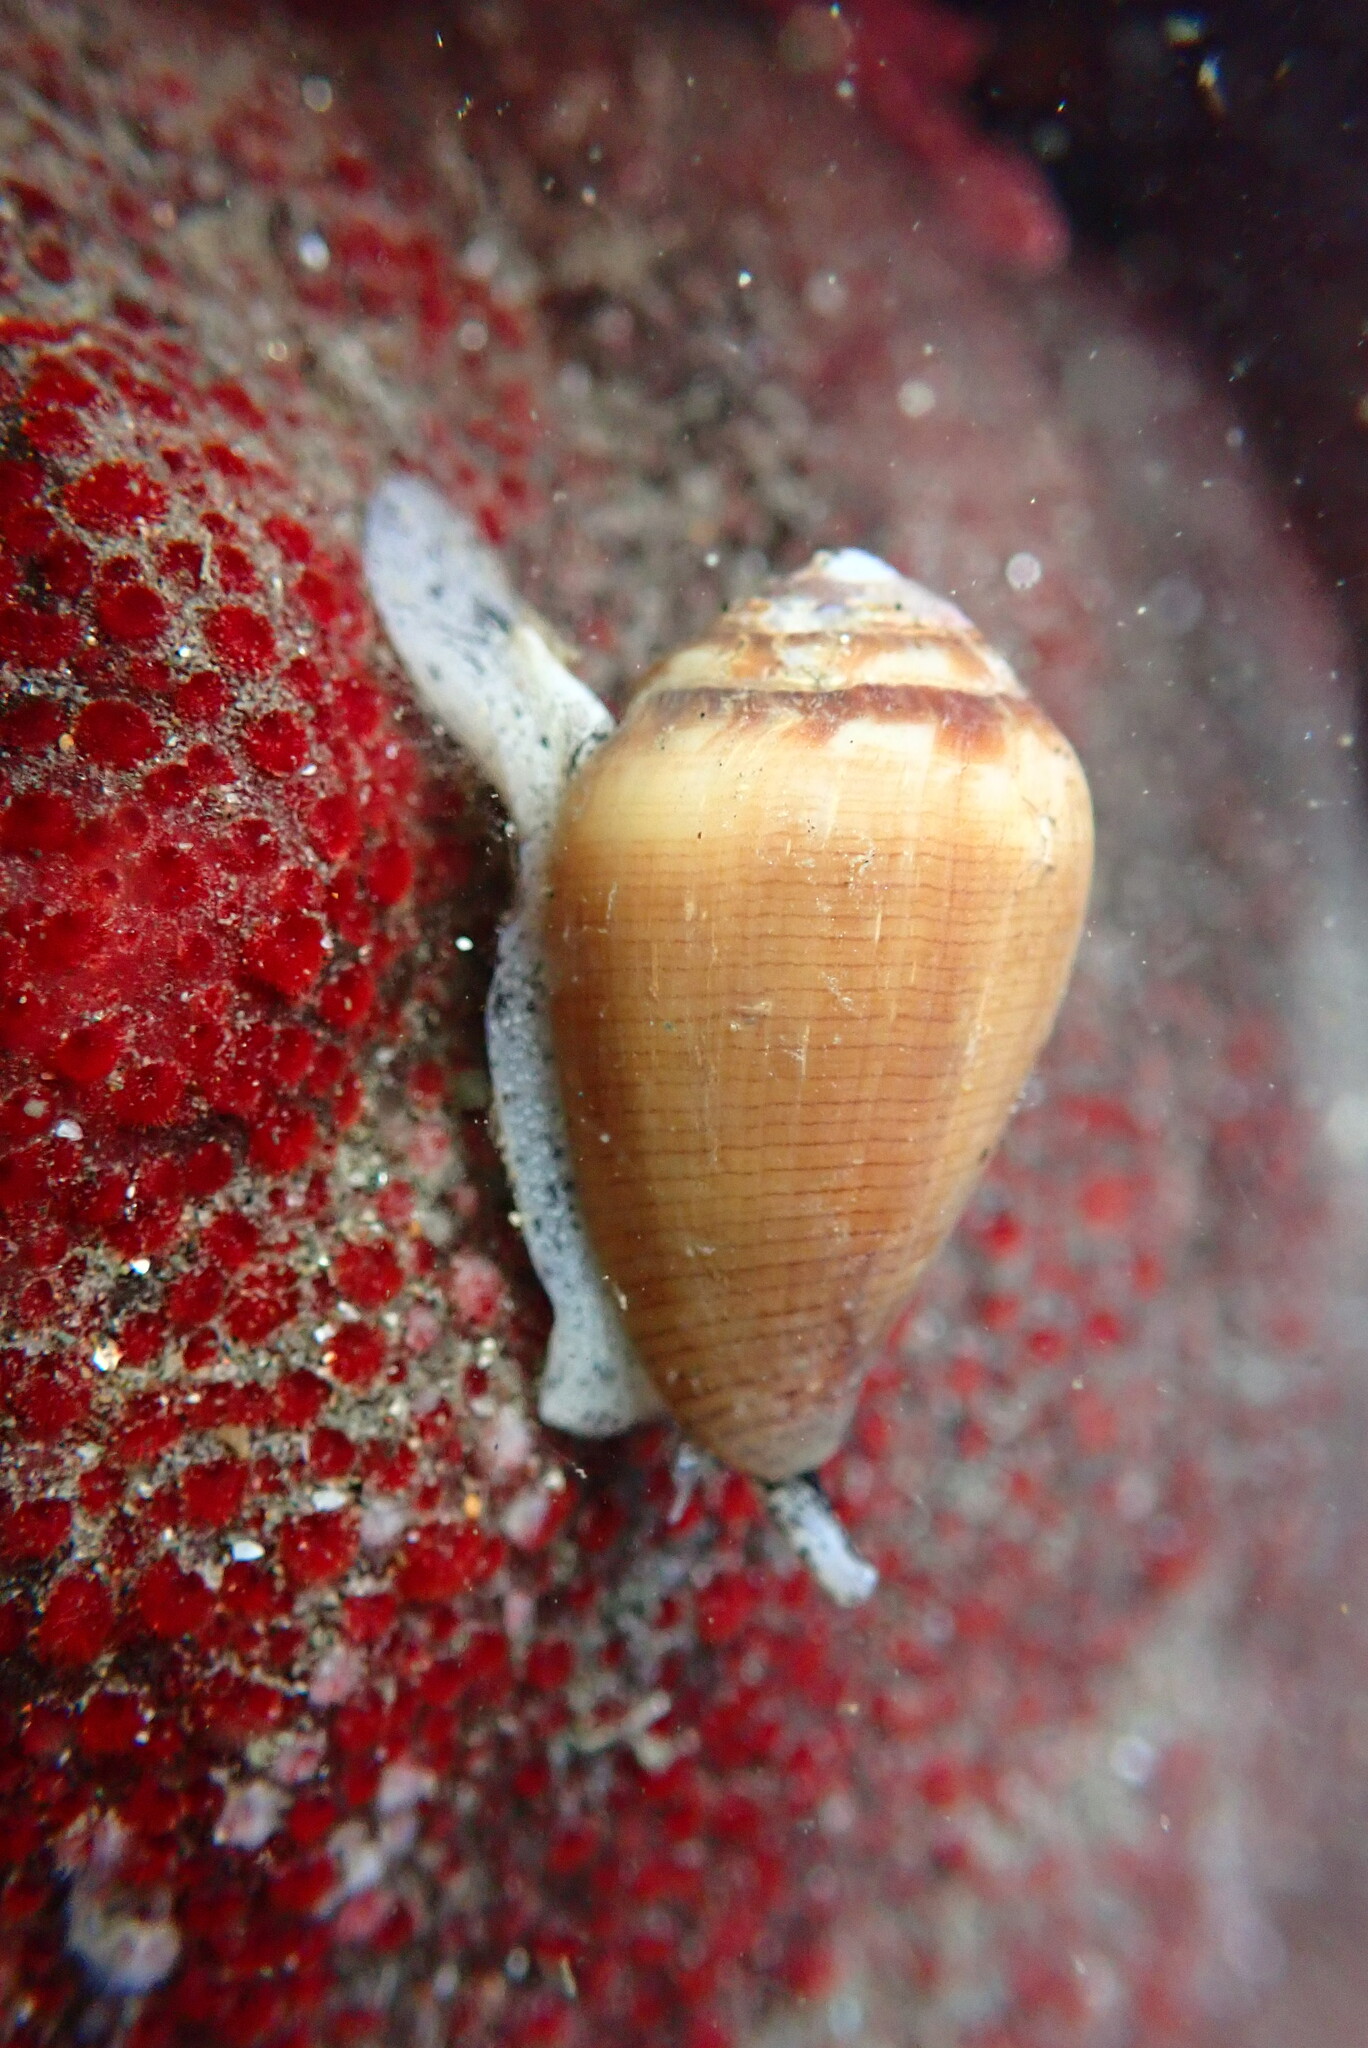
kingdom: Animalia
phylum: Mollusca
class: Gastropoda
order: Neogastropoda
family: Conidae
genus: Californiconus
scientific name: Californiconus californicus
